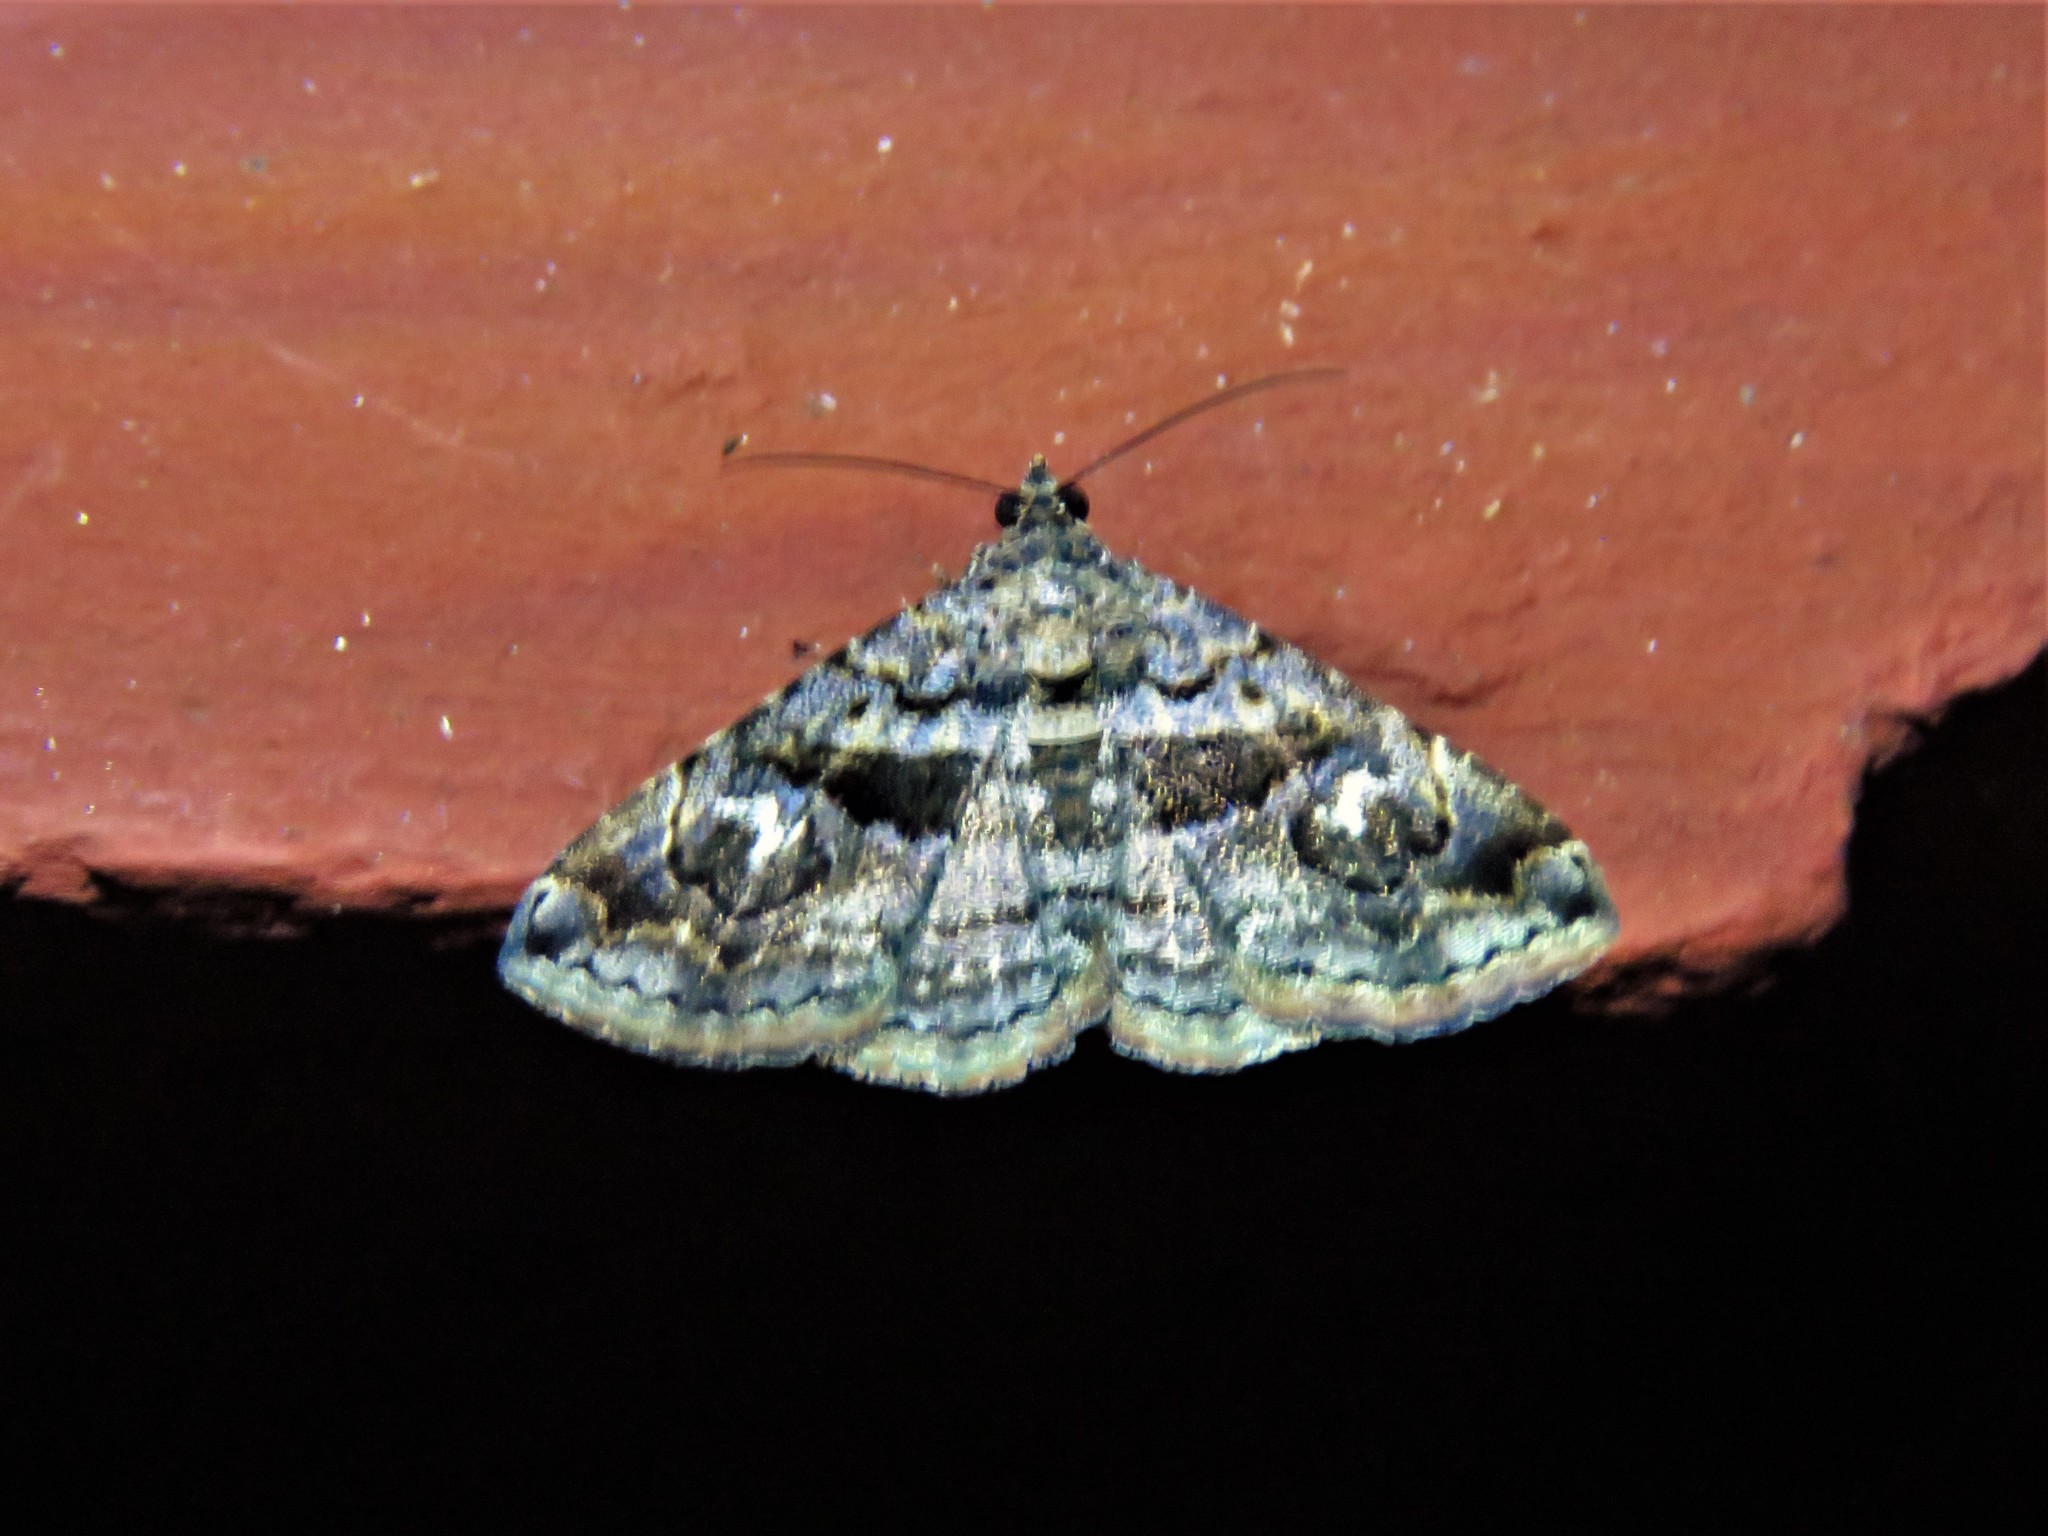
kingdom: Animalia
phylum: Arthropoda
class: Insecta
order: Lepidoptera
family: Erebidae
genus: Toxonprucha
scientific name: Toxonprucha excavata
